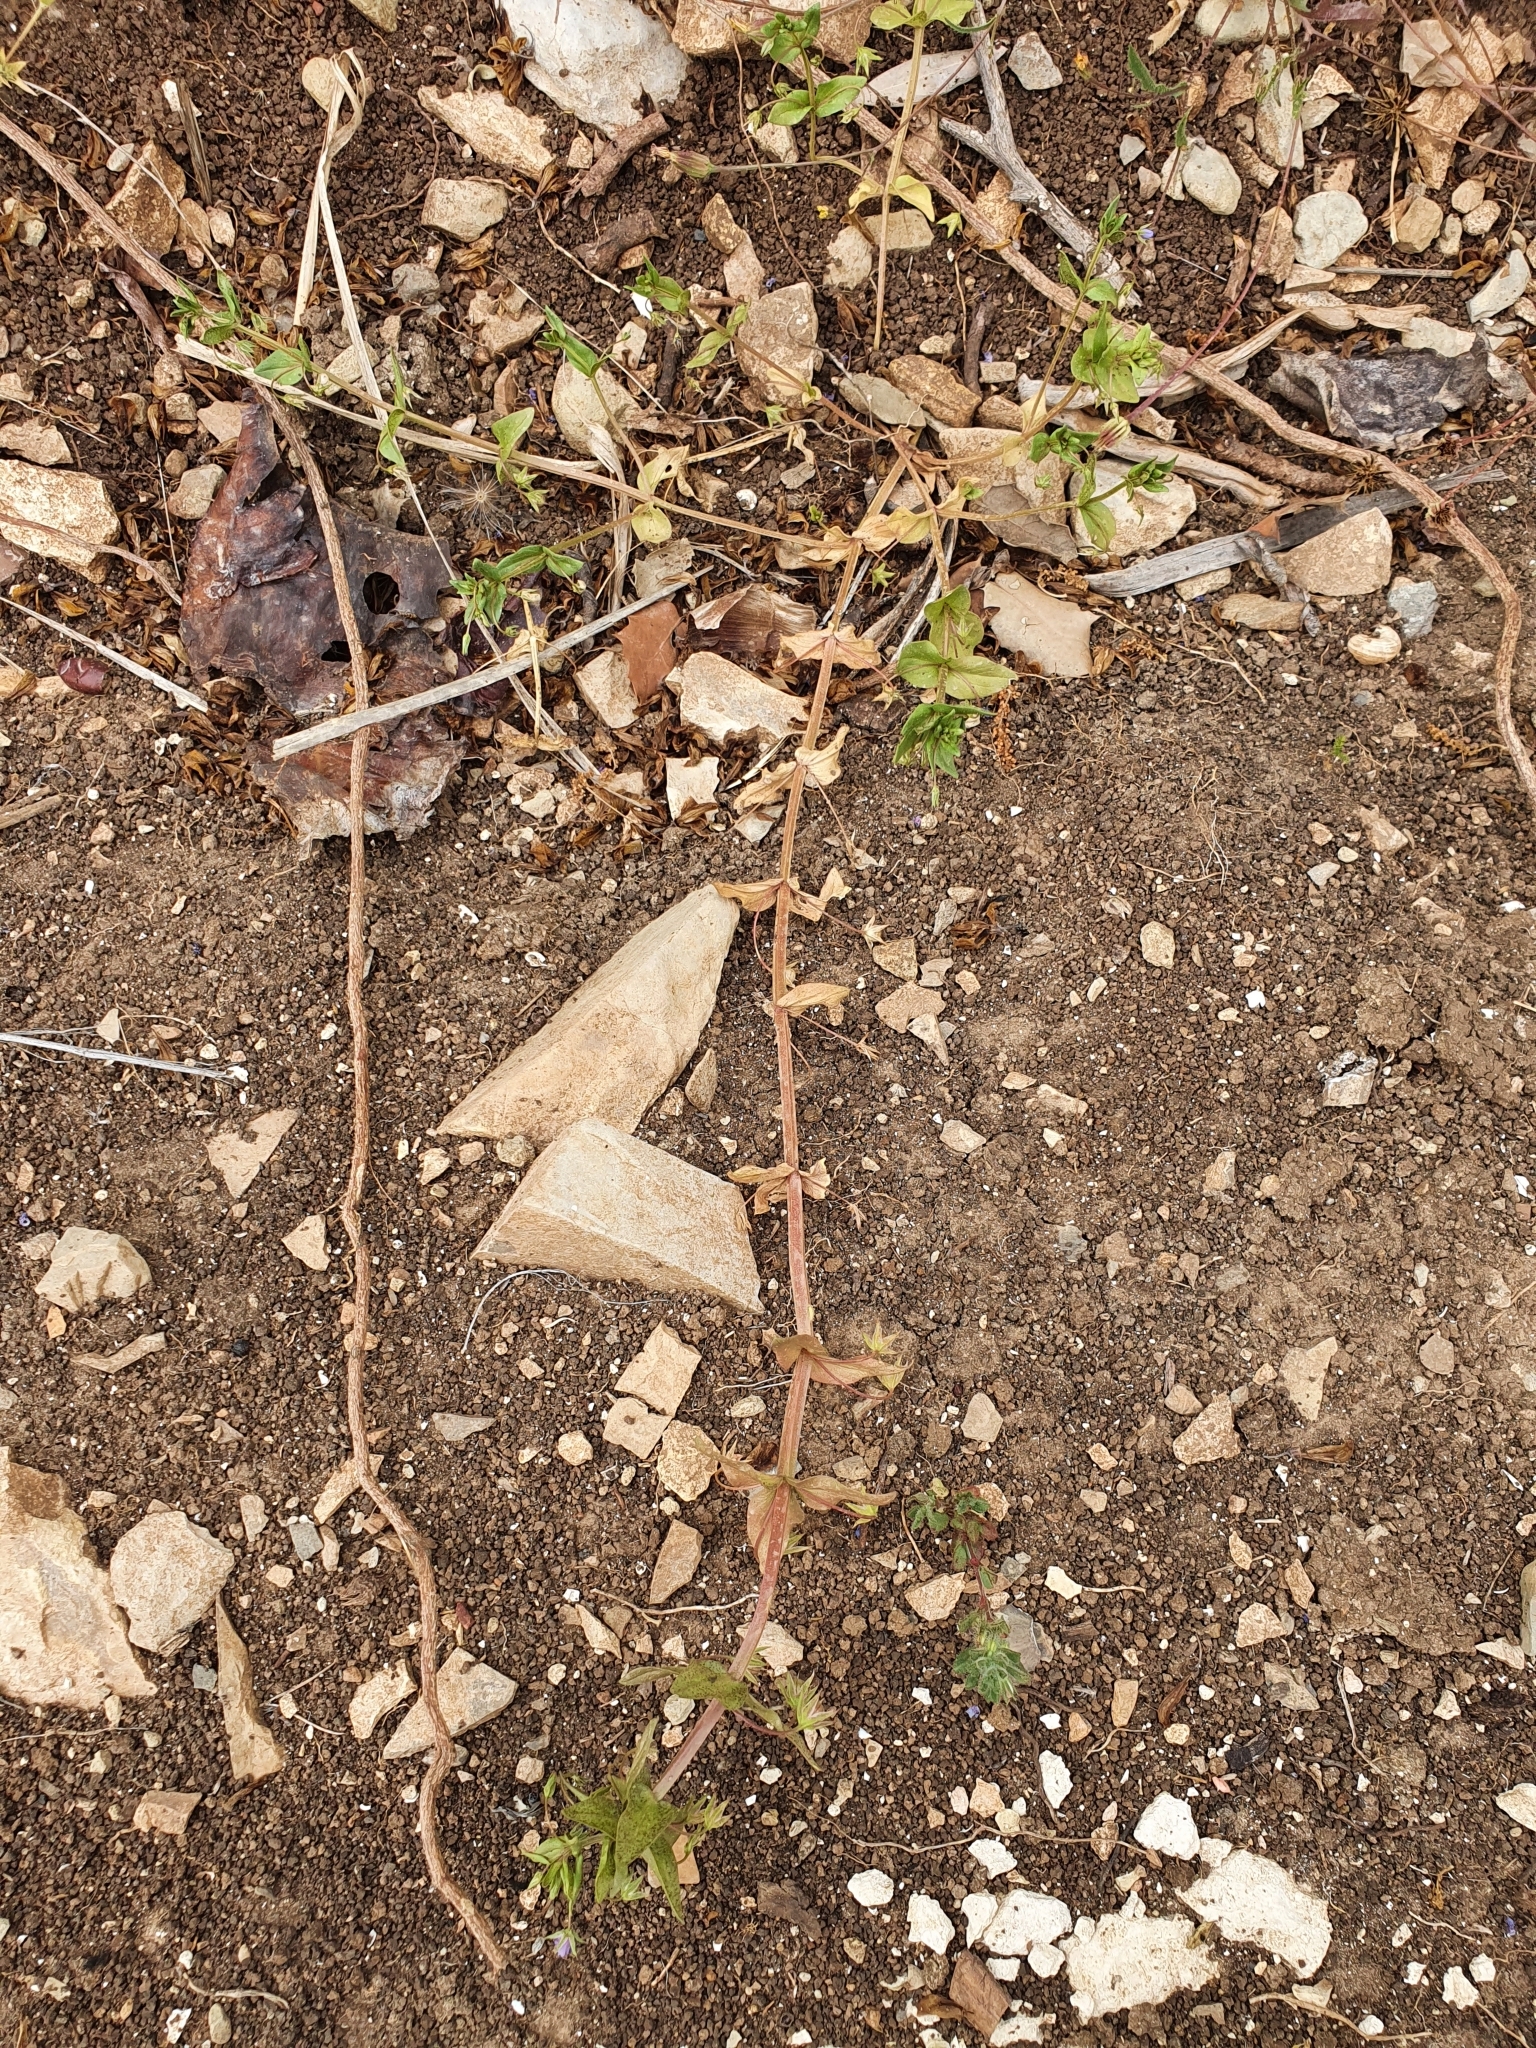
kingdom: Plantae
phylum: Tracheophyta
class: Magnoliopsida
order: Ericales
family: Primulaceae
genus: Lysimachia
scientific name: Lysimachia loeflingii
